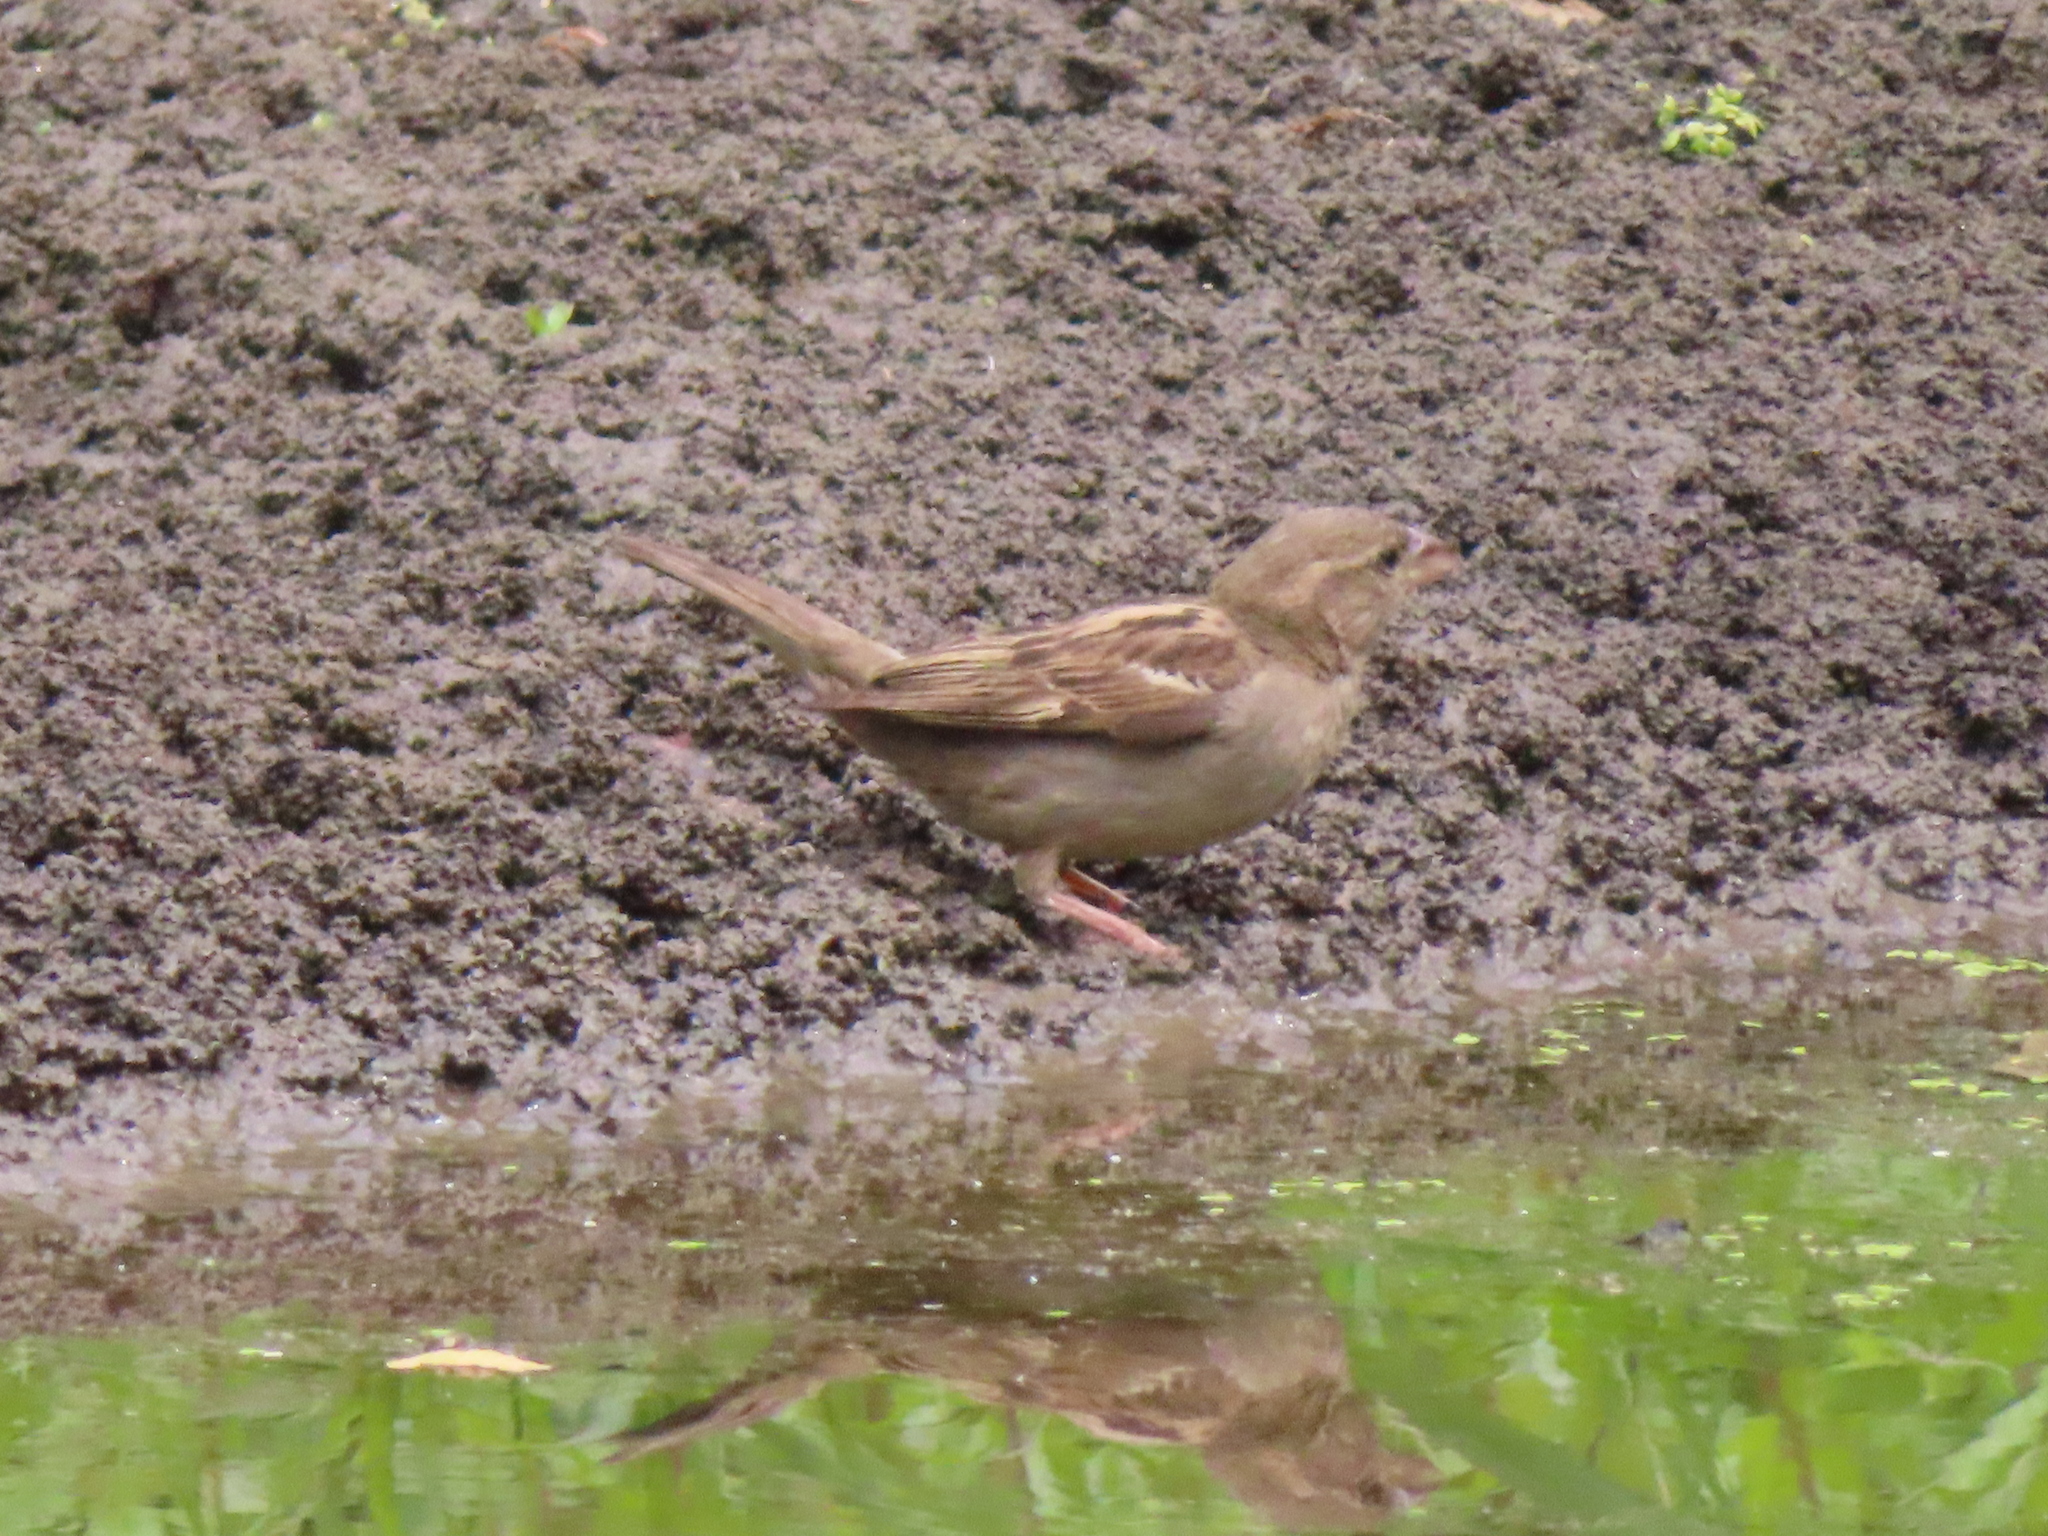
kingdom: Animalia
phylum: Chordata
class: Aves
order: Passeriformes
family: Passeridae
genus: Passer
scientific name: Passer domesticus
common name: House sparrow
